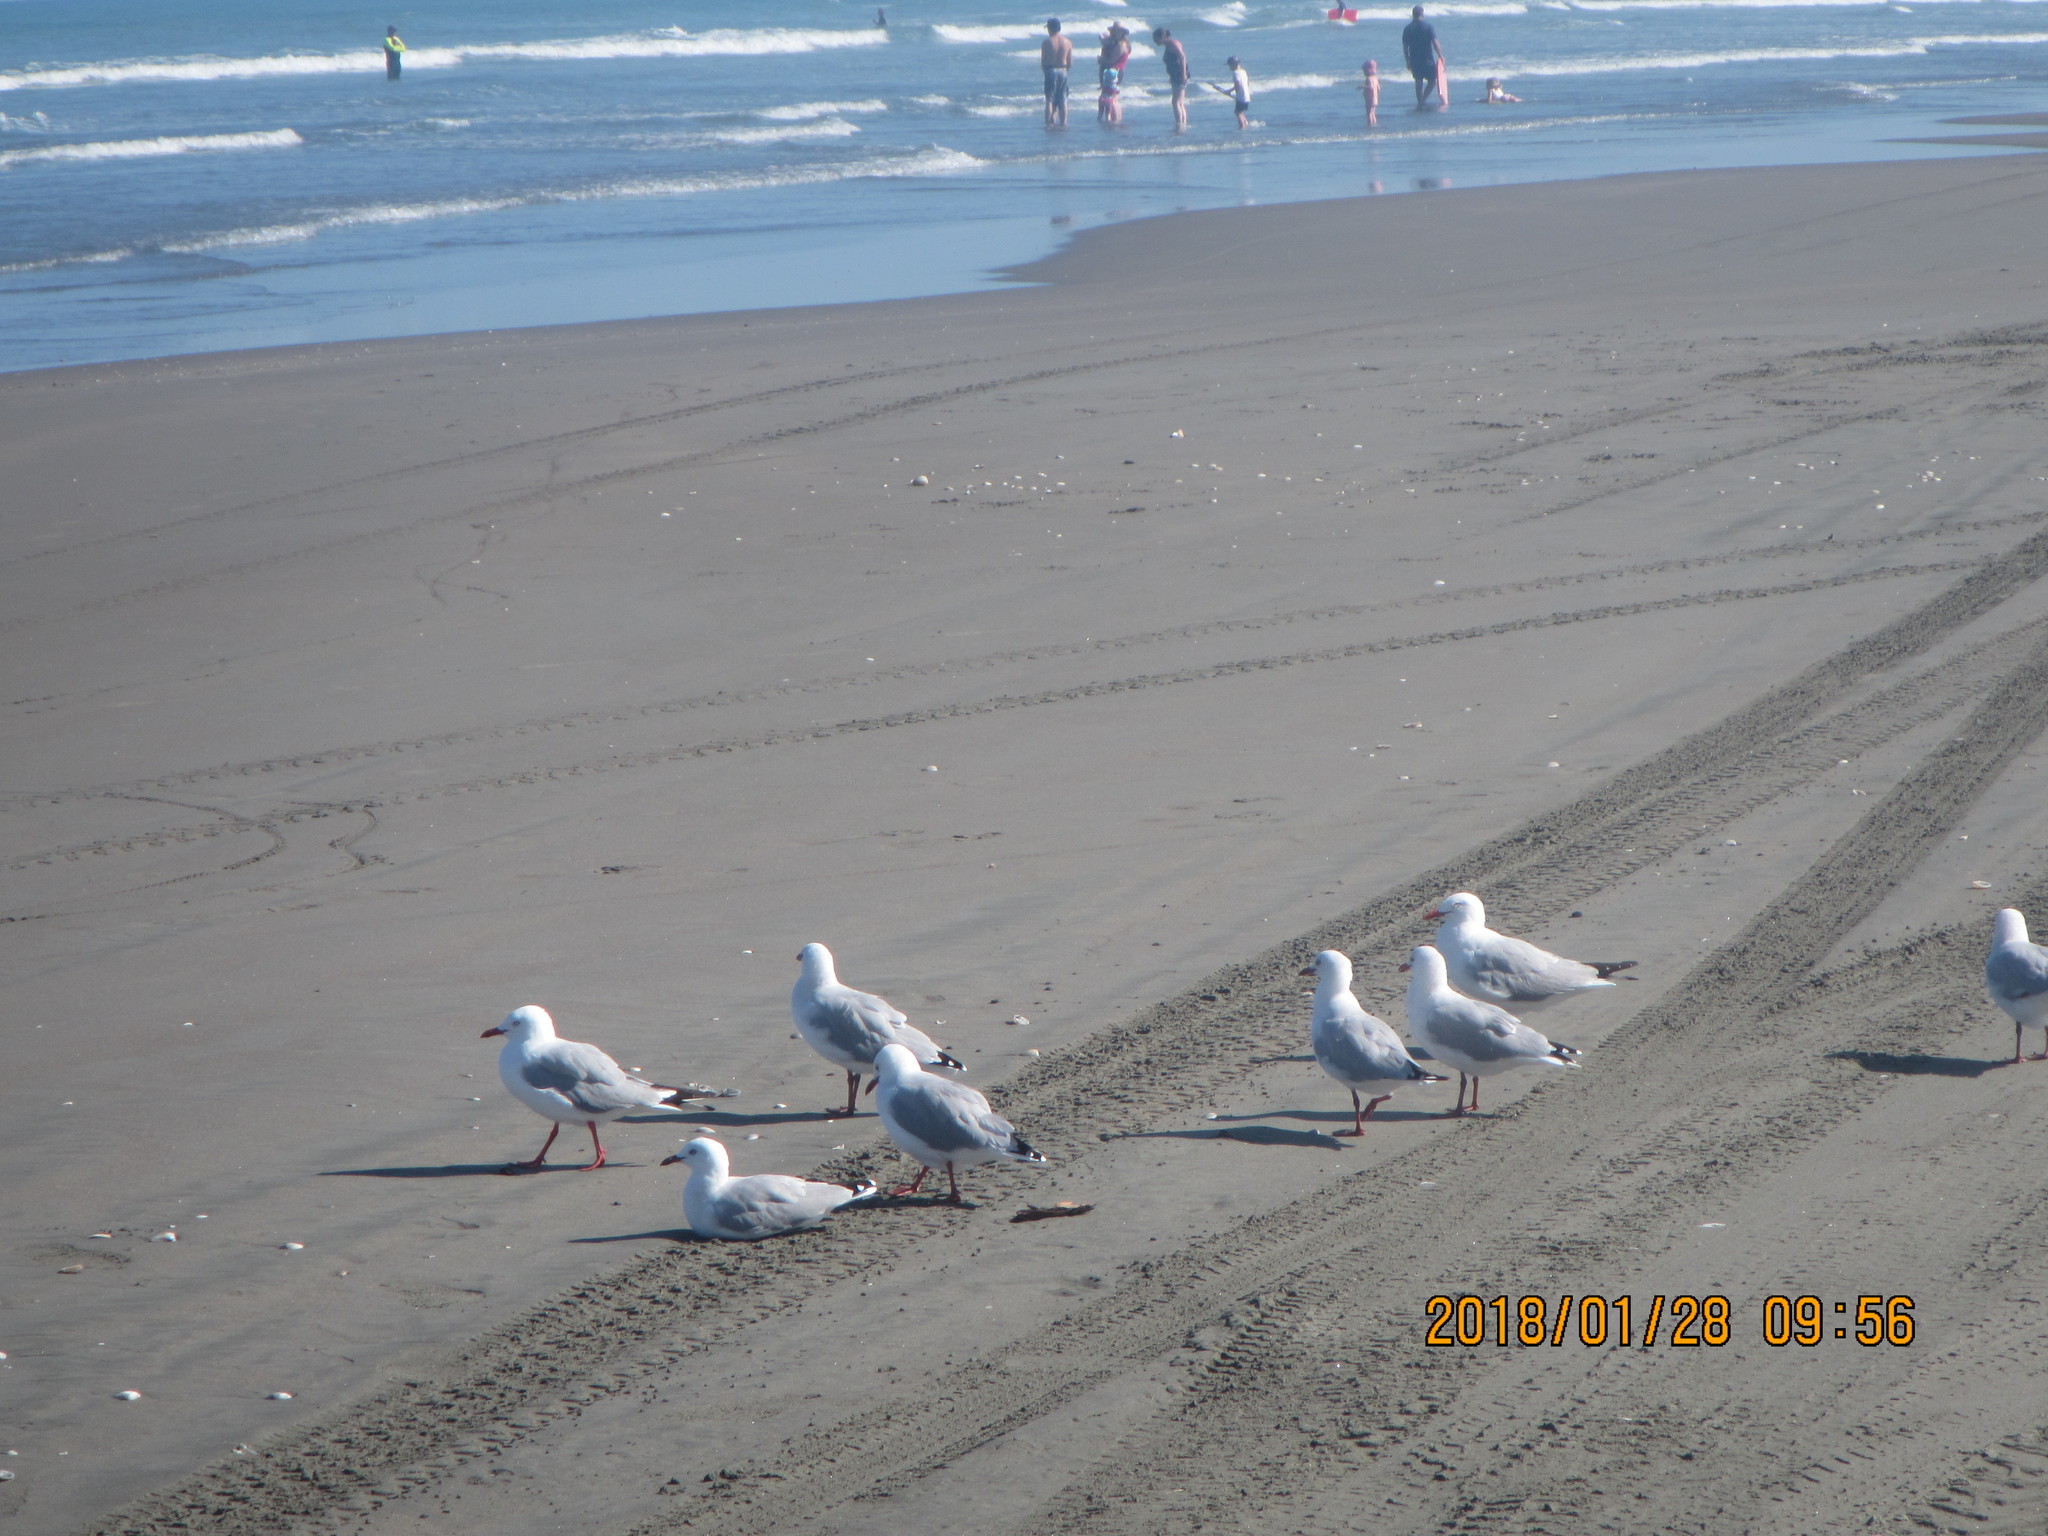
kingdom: Animalia
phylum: Chordata
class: Aves
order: Charadriiformes
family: Laridae
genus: Chroicocephalus
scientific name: Chroicocephalus novaehollandiae
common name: Silver gull
